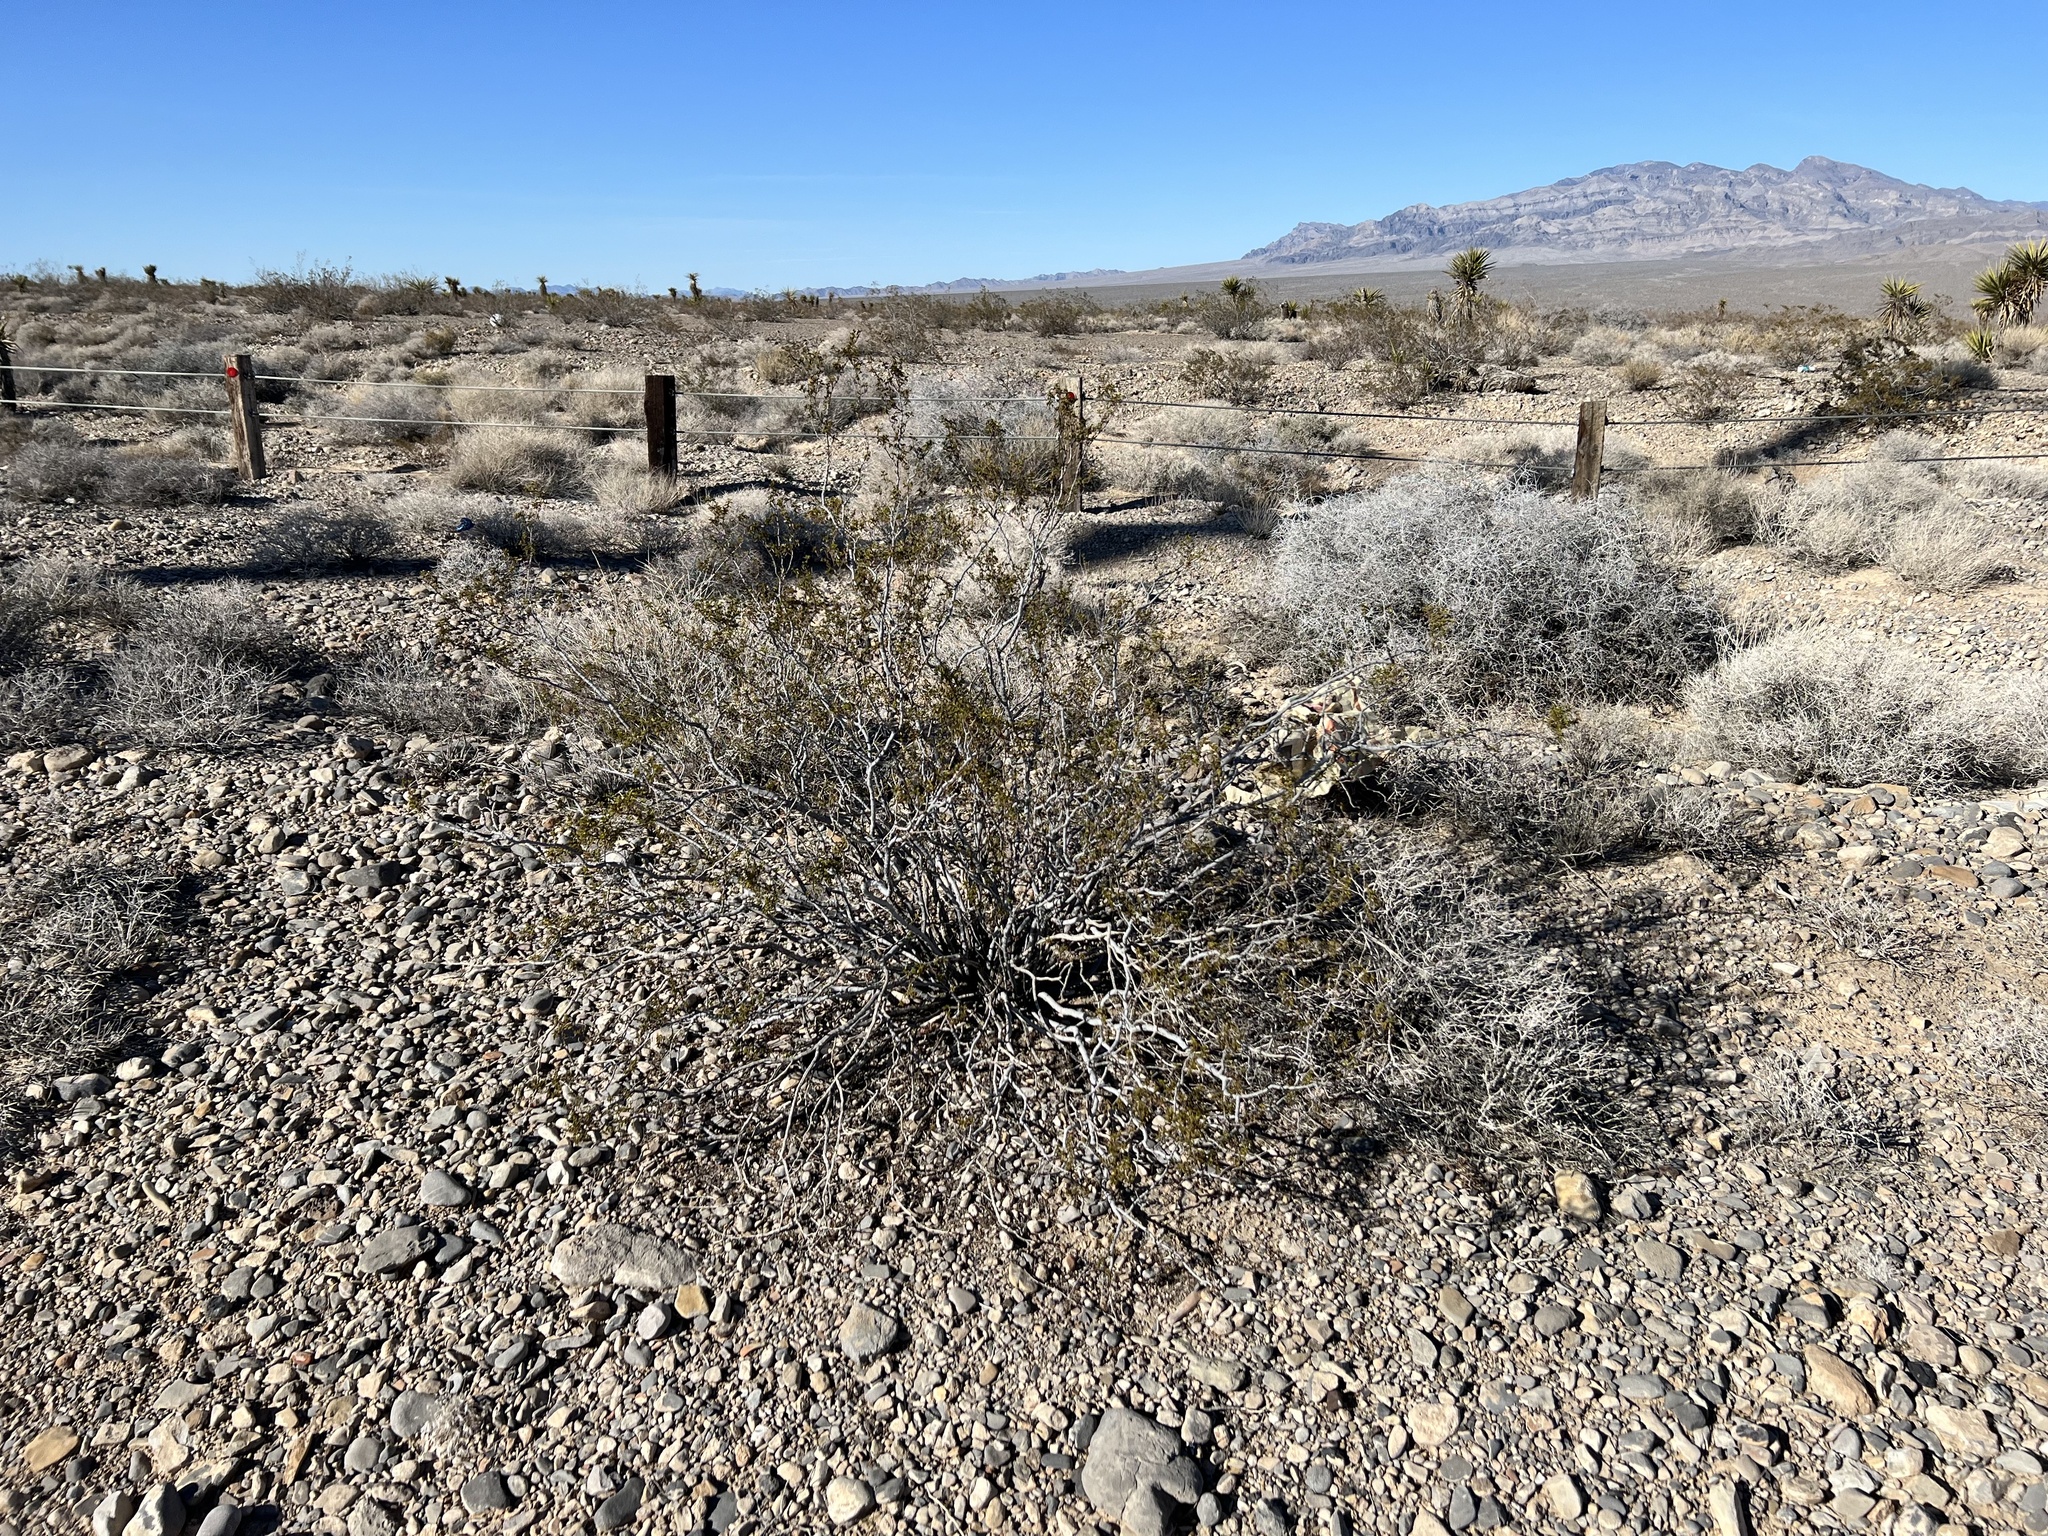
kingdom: Plantae
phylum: Tracheophyta
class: Magnoliopsida
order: Zygophyllales
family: Zygophyllaceae
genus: Larrea
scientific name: Larrea tridentata
